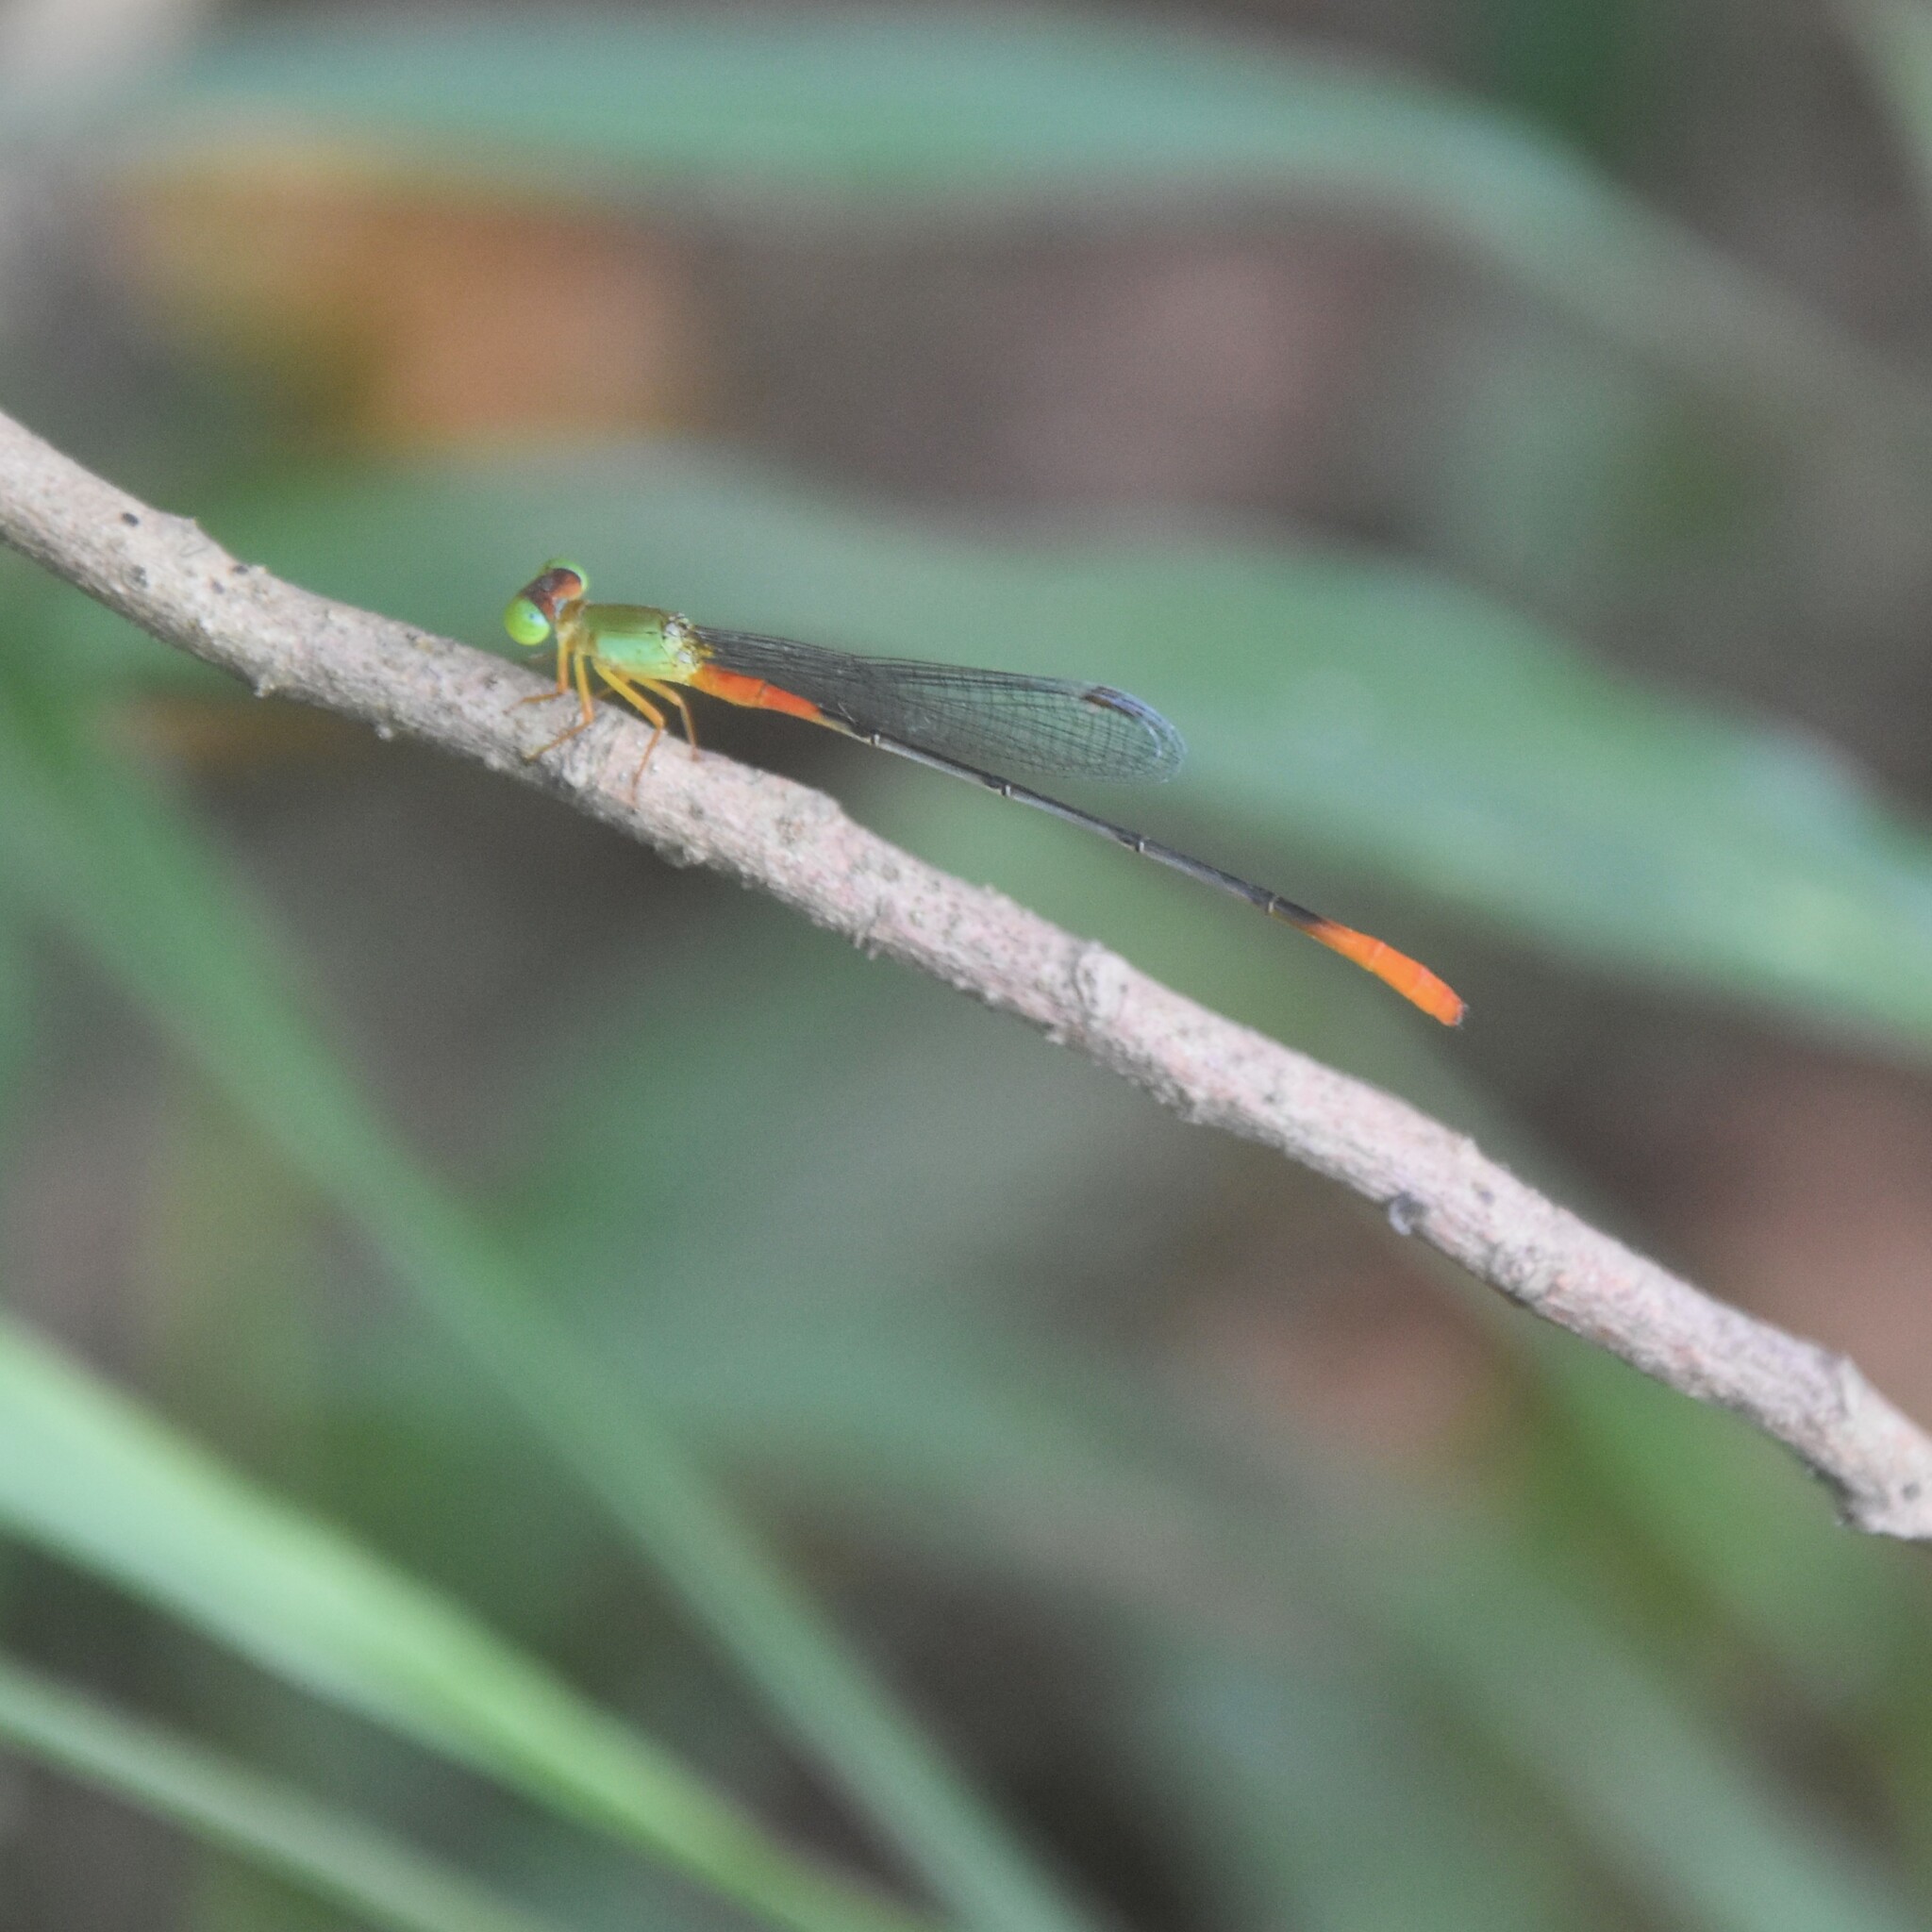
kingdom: Animalia
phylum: Arthropoda
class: Insecta
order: Odonata
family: Coenagrionidae
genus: Ceriagrion
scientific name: Ceriagrion cerinorubellum
